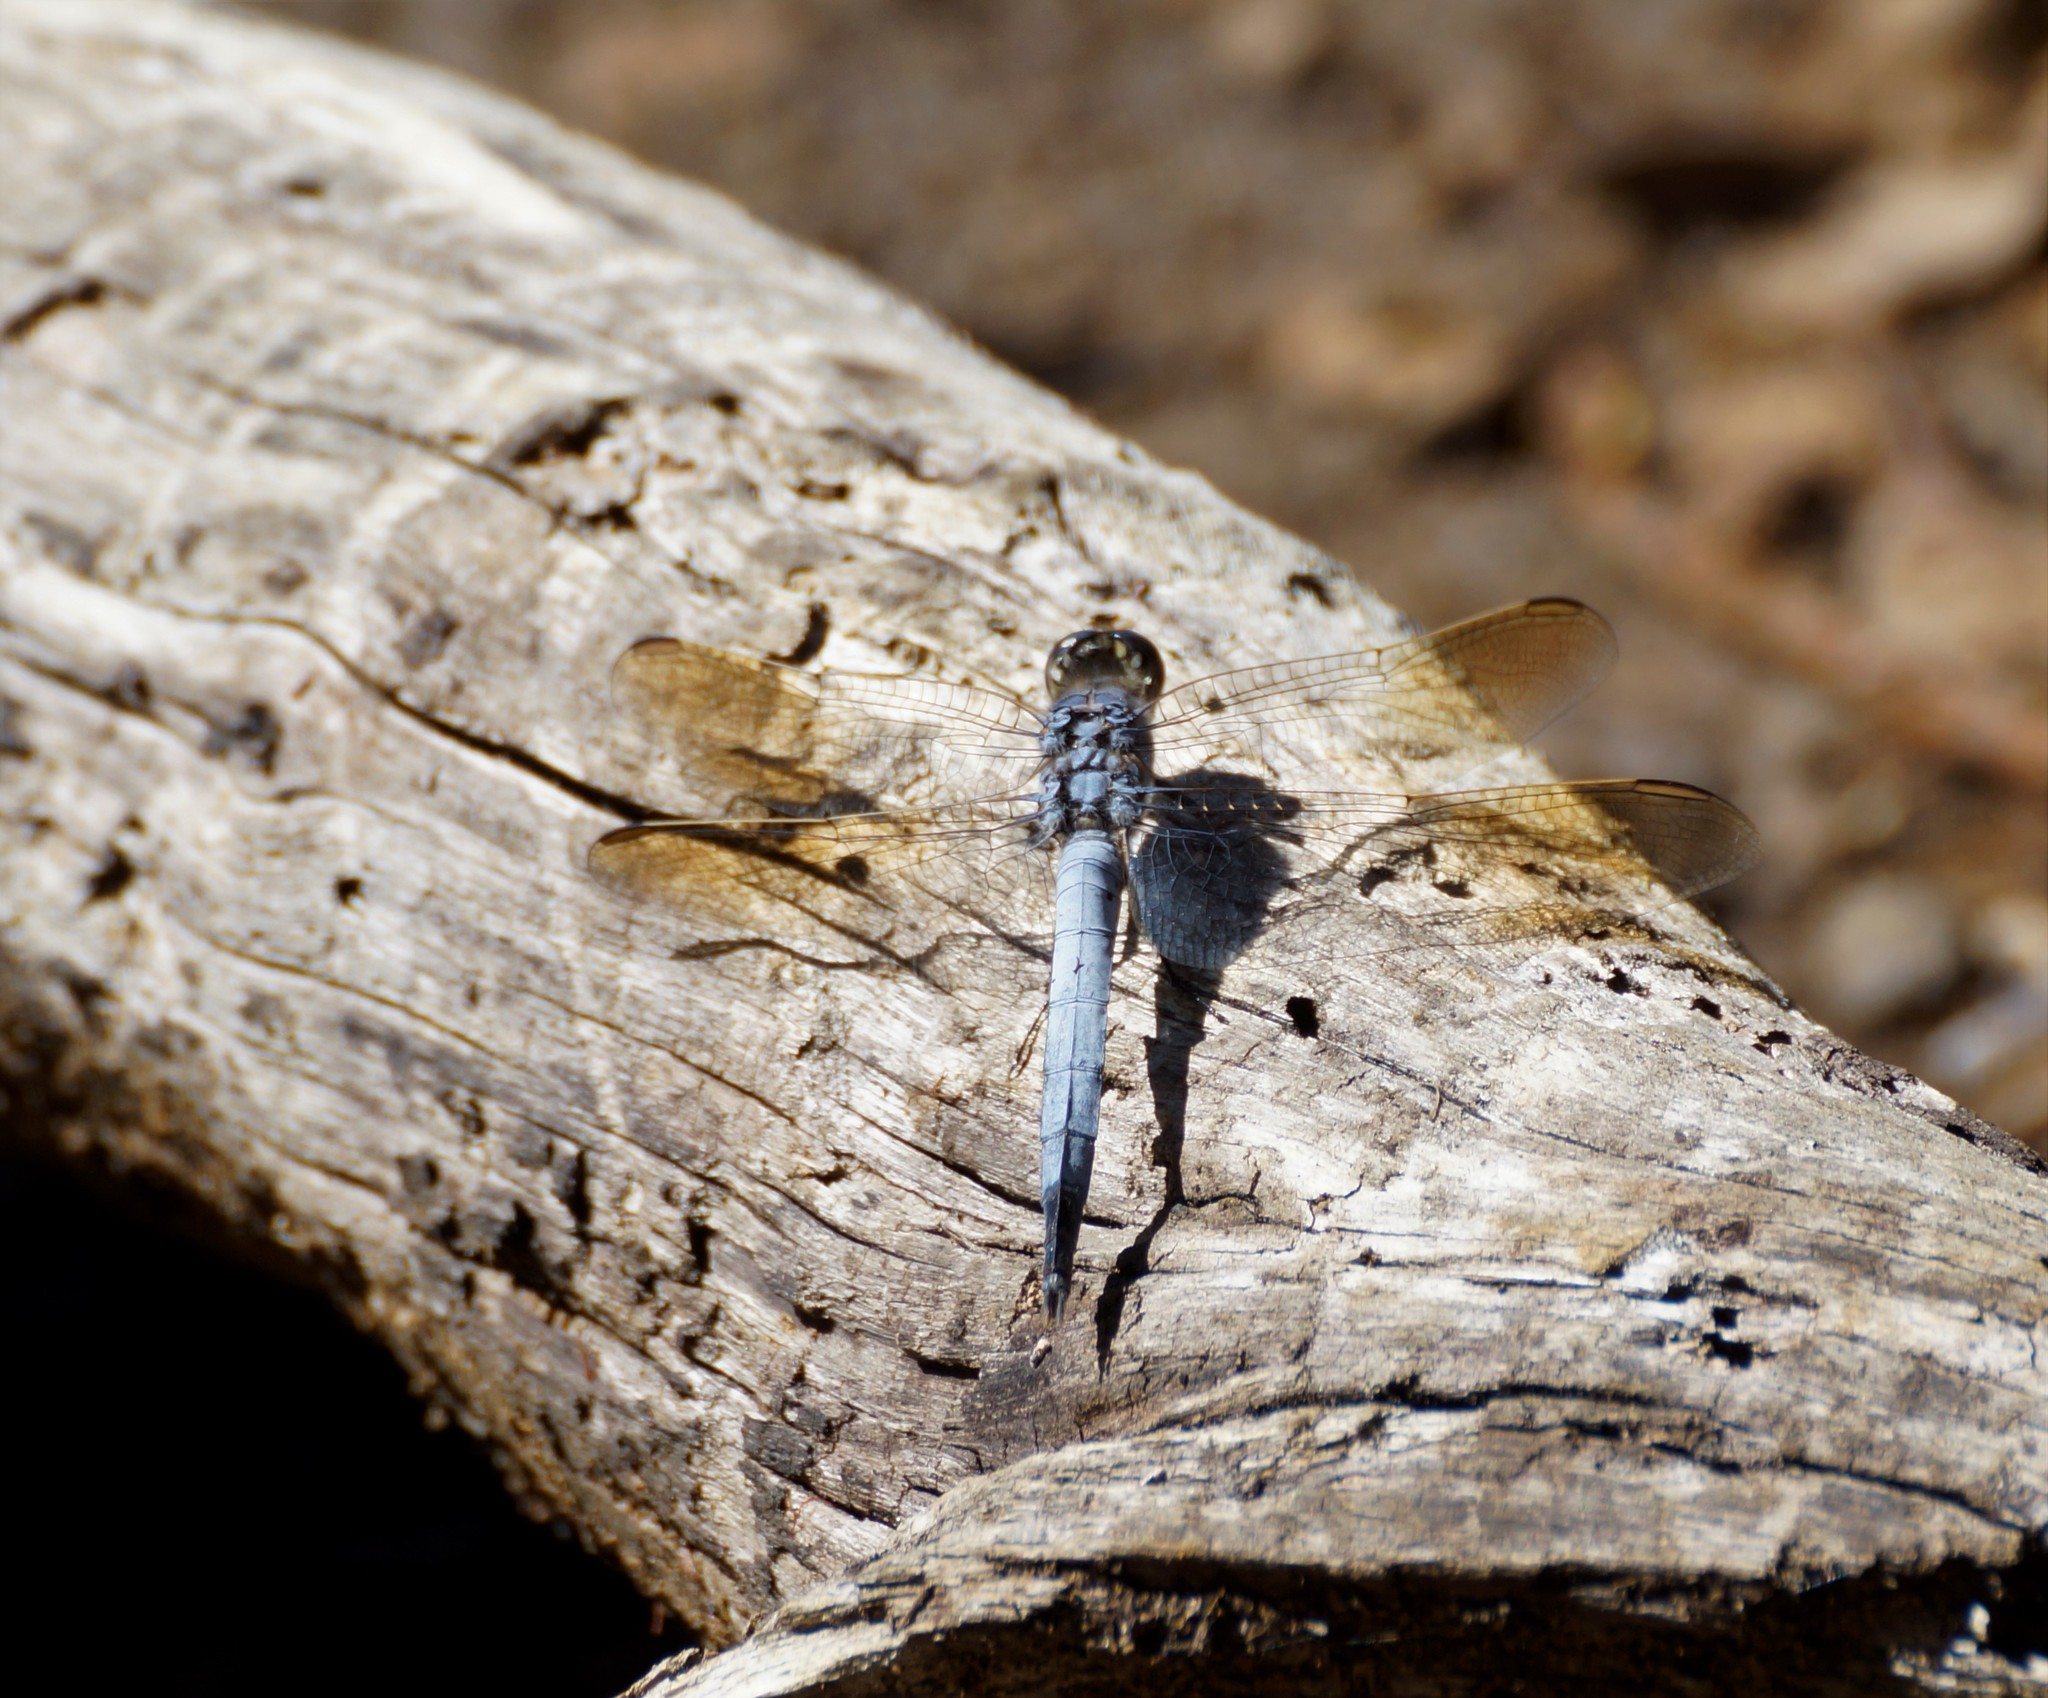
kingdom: Animalia
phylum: Arthropoda
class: Insecta
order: Odonata
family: Libellulidae
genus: Orthetrum
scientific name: Orthetrum caledonicum
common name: Blue skimmer
